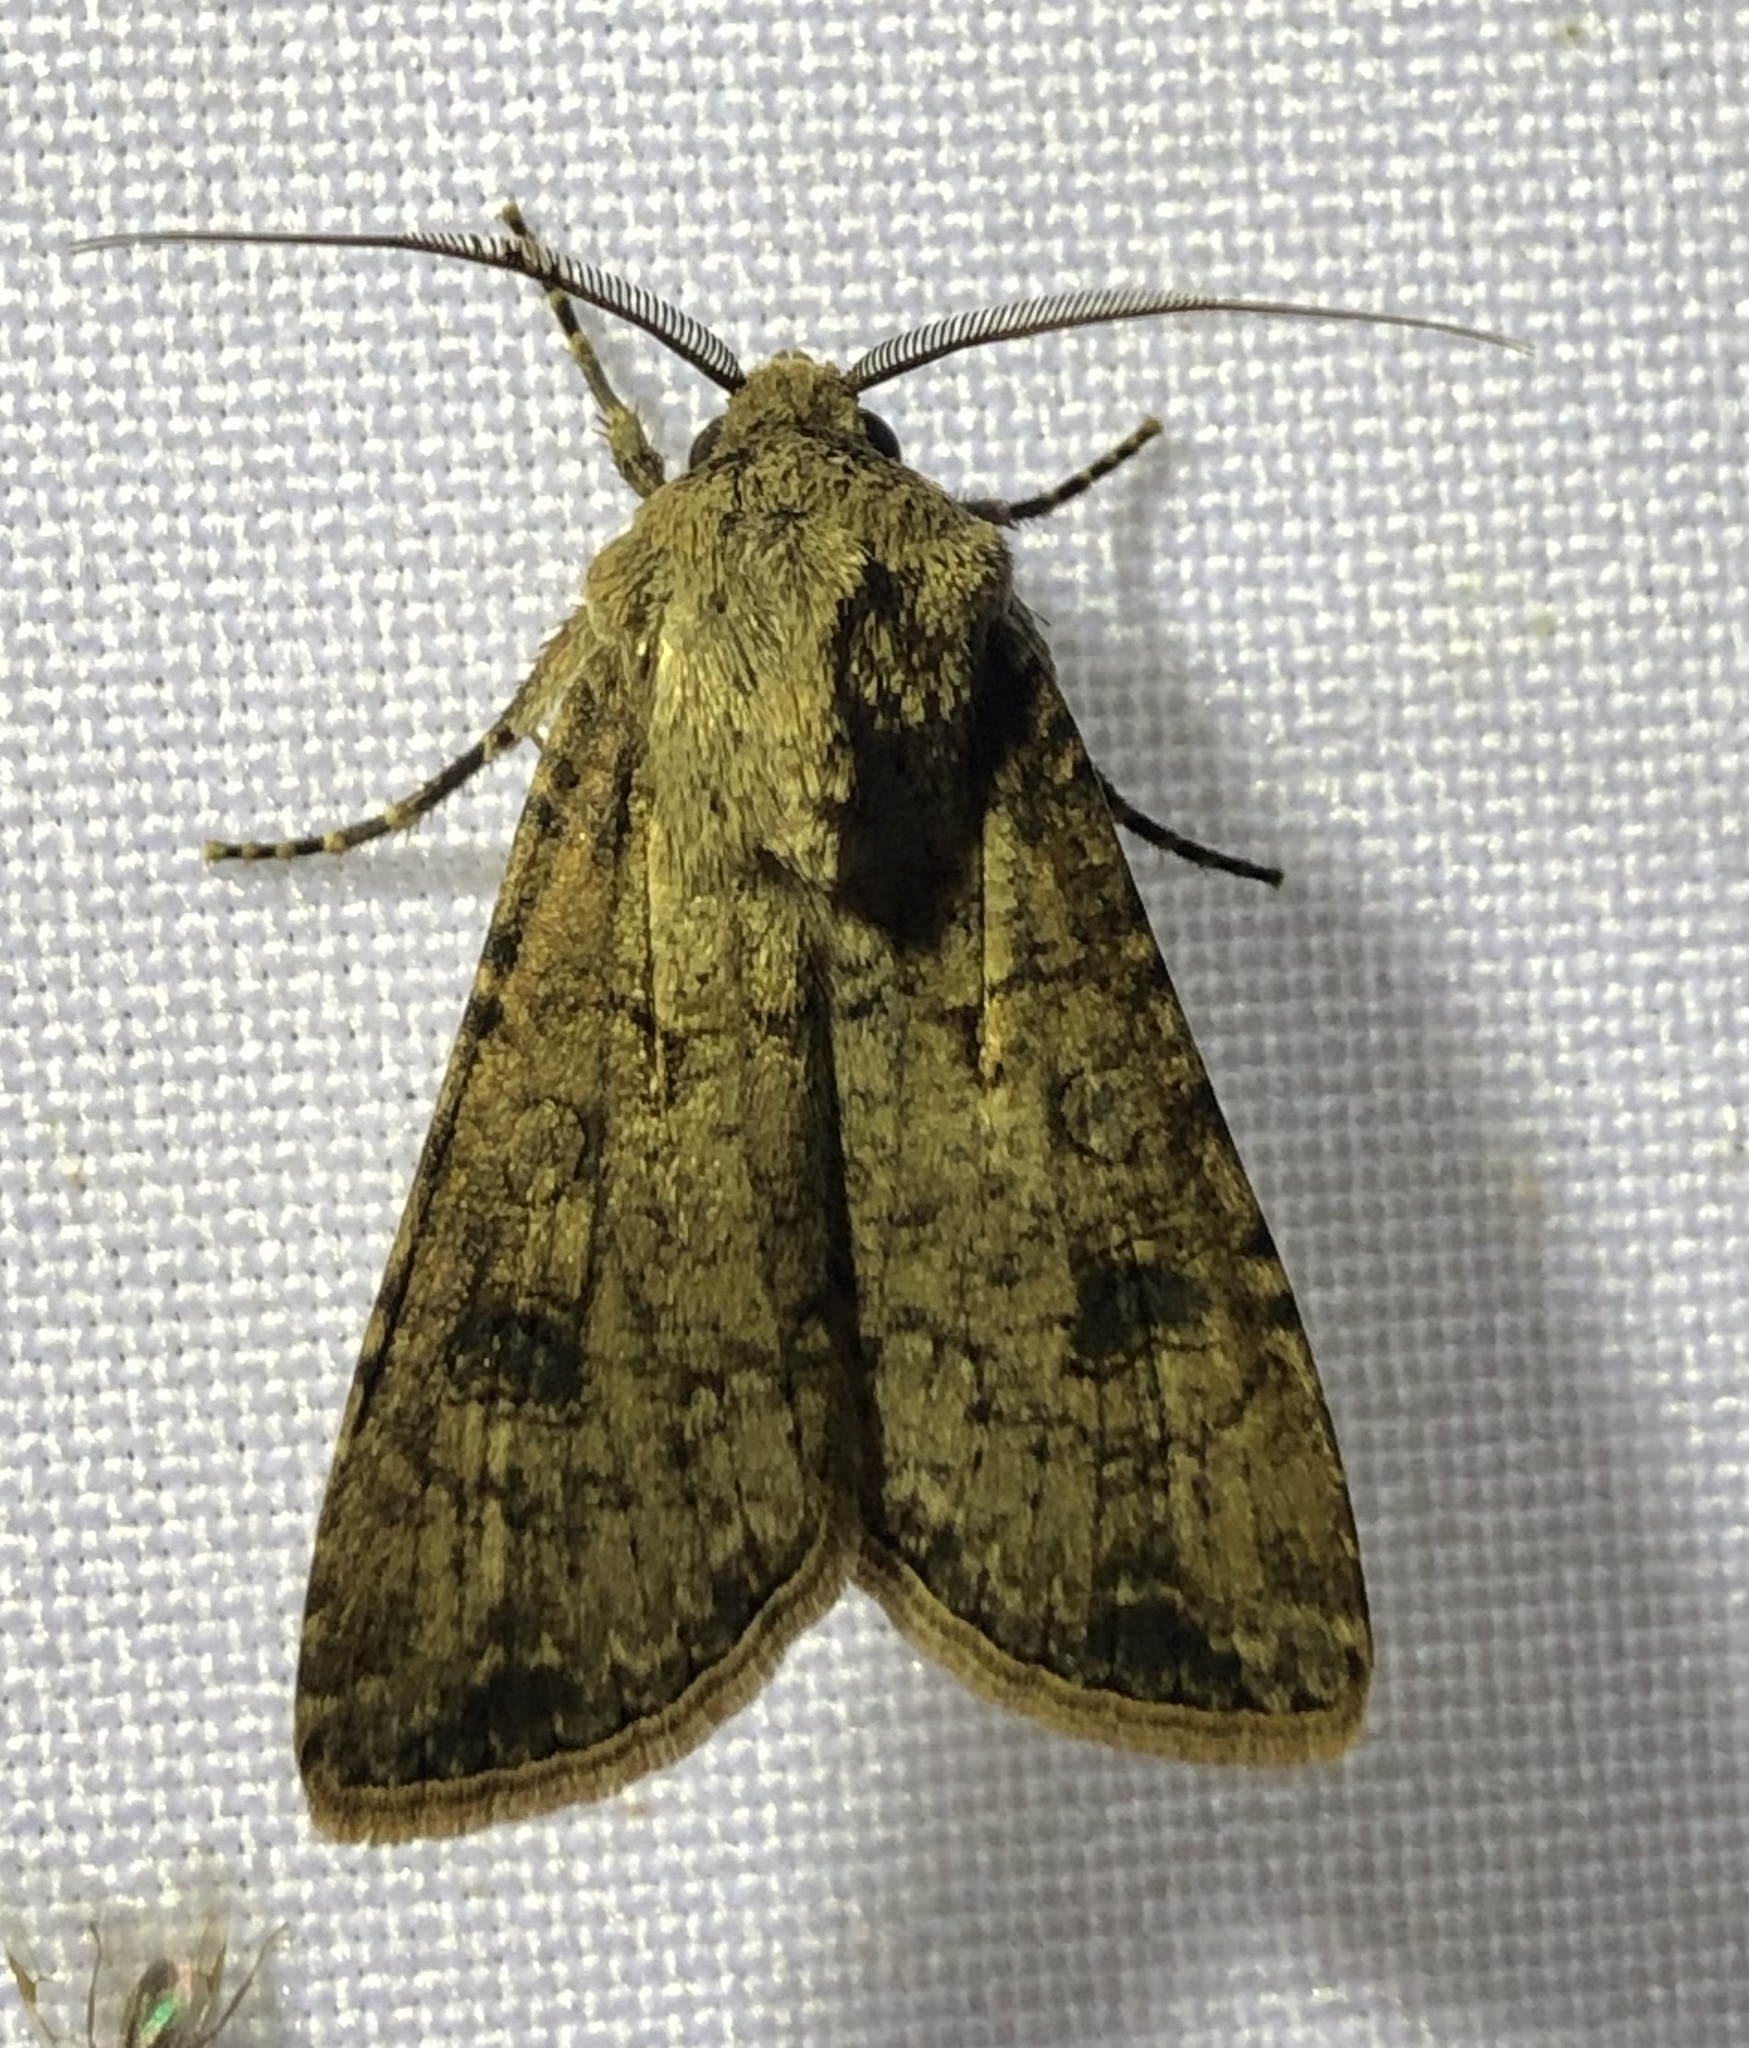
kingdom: Animalia
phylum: Arthropoda
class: Insecta
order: Lepidoptera
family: Noctuidae
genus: Agrotis
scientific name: Agrotis segetum
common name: Turnip moth
